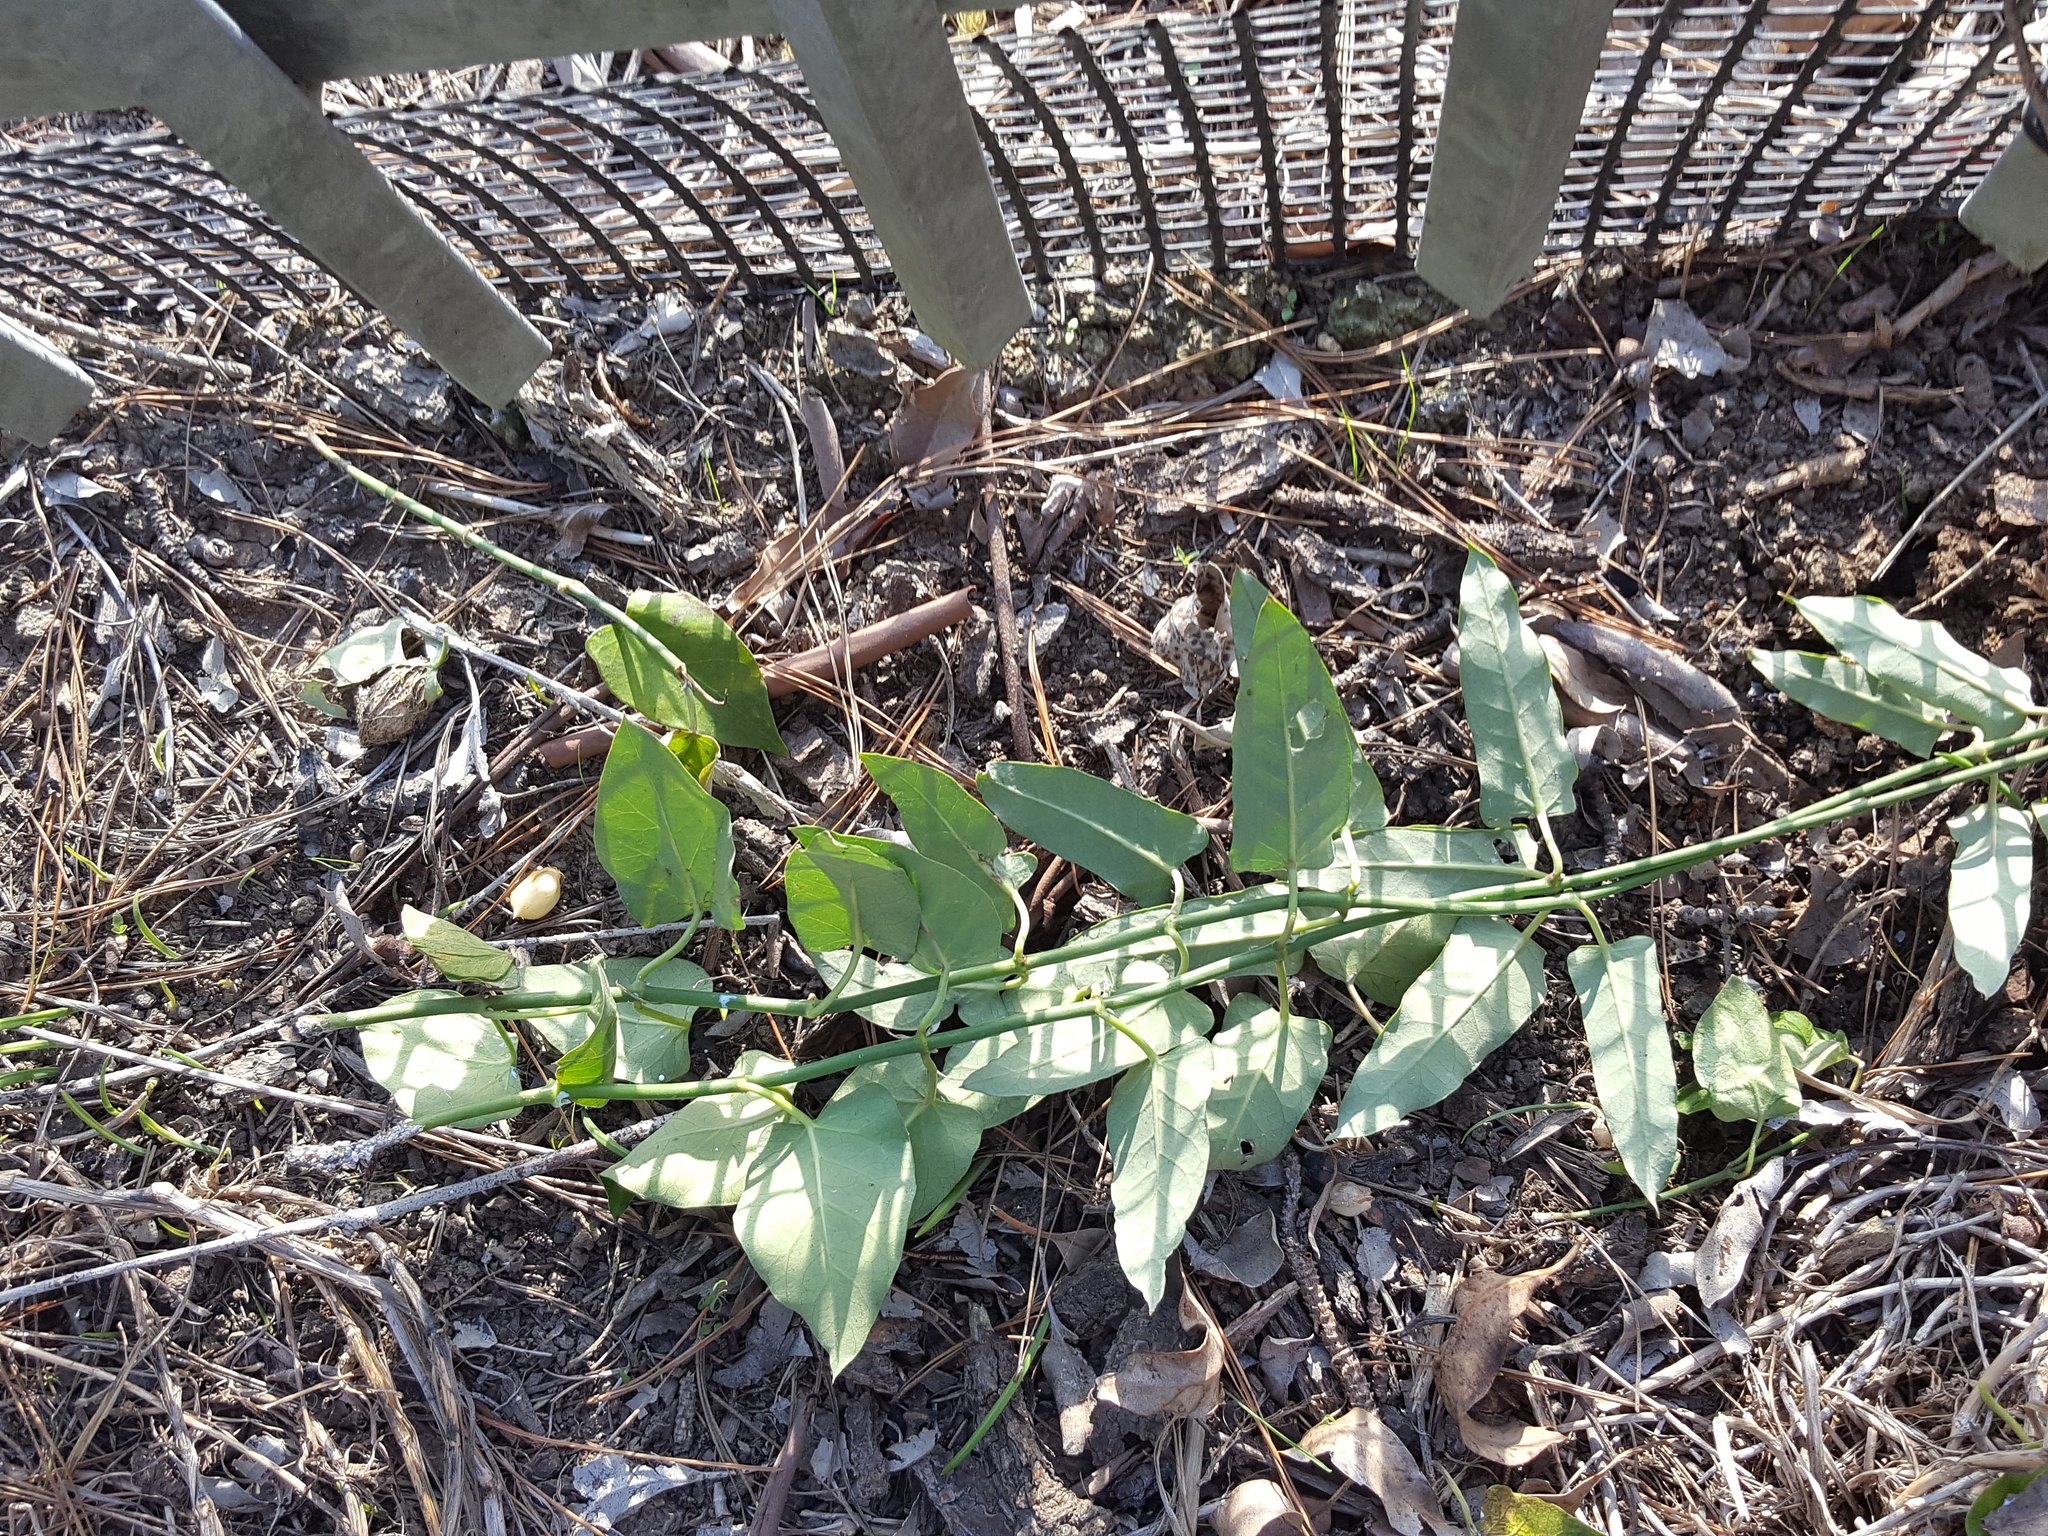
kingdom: Plantae
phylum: Tracheophyta
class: Magnoliopsida
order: Gentianales
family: Apocynaceae
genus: Araujia
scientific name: Araujia sericifera
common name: White bladderflower
